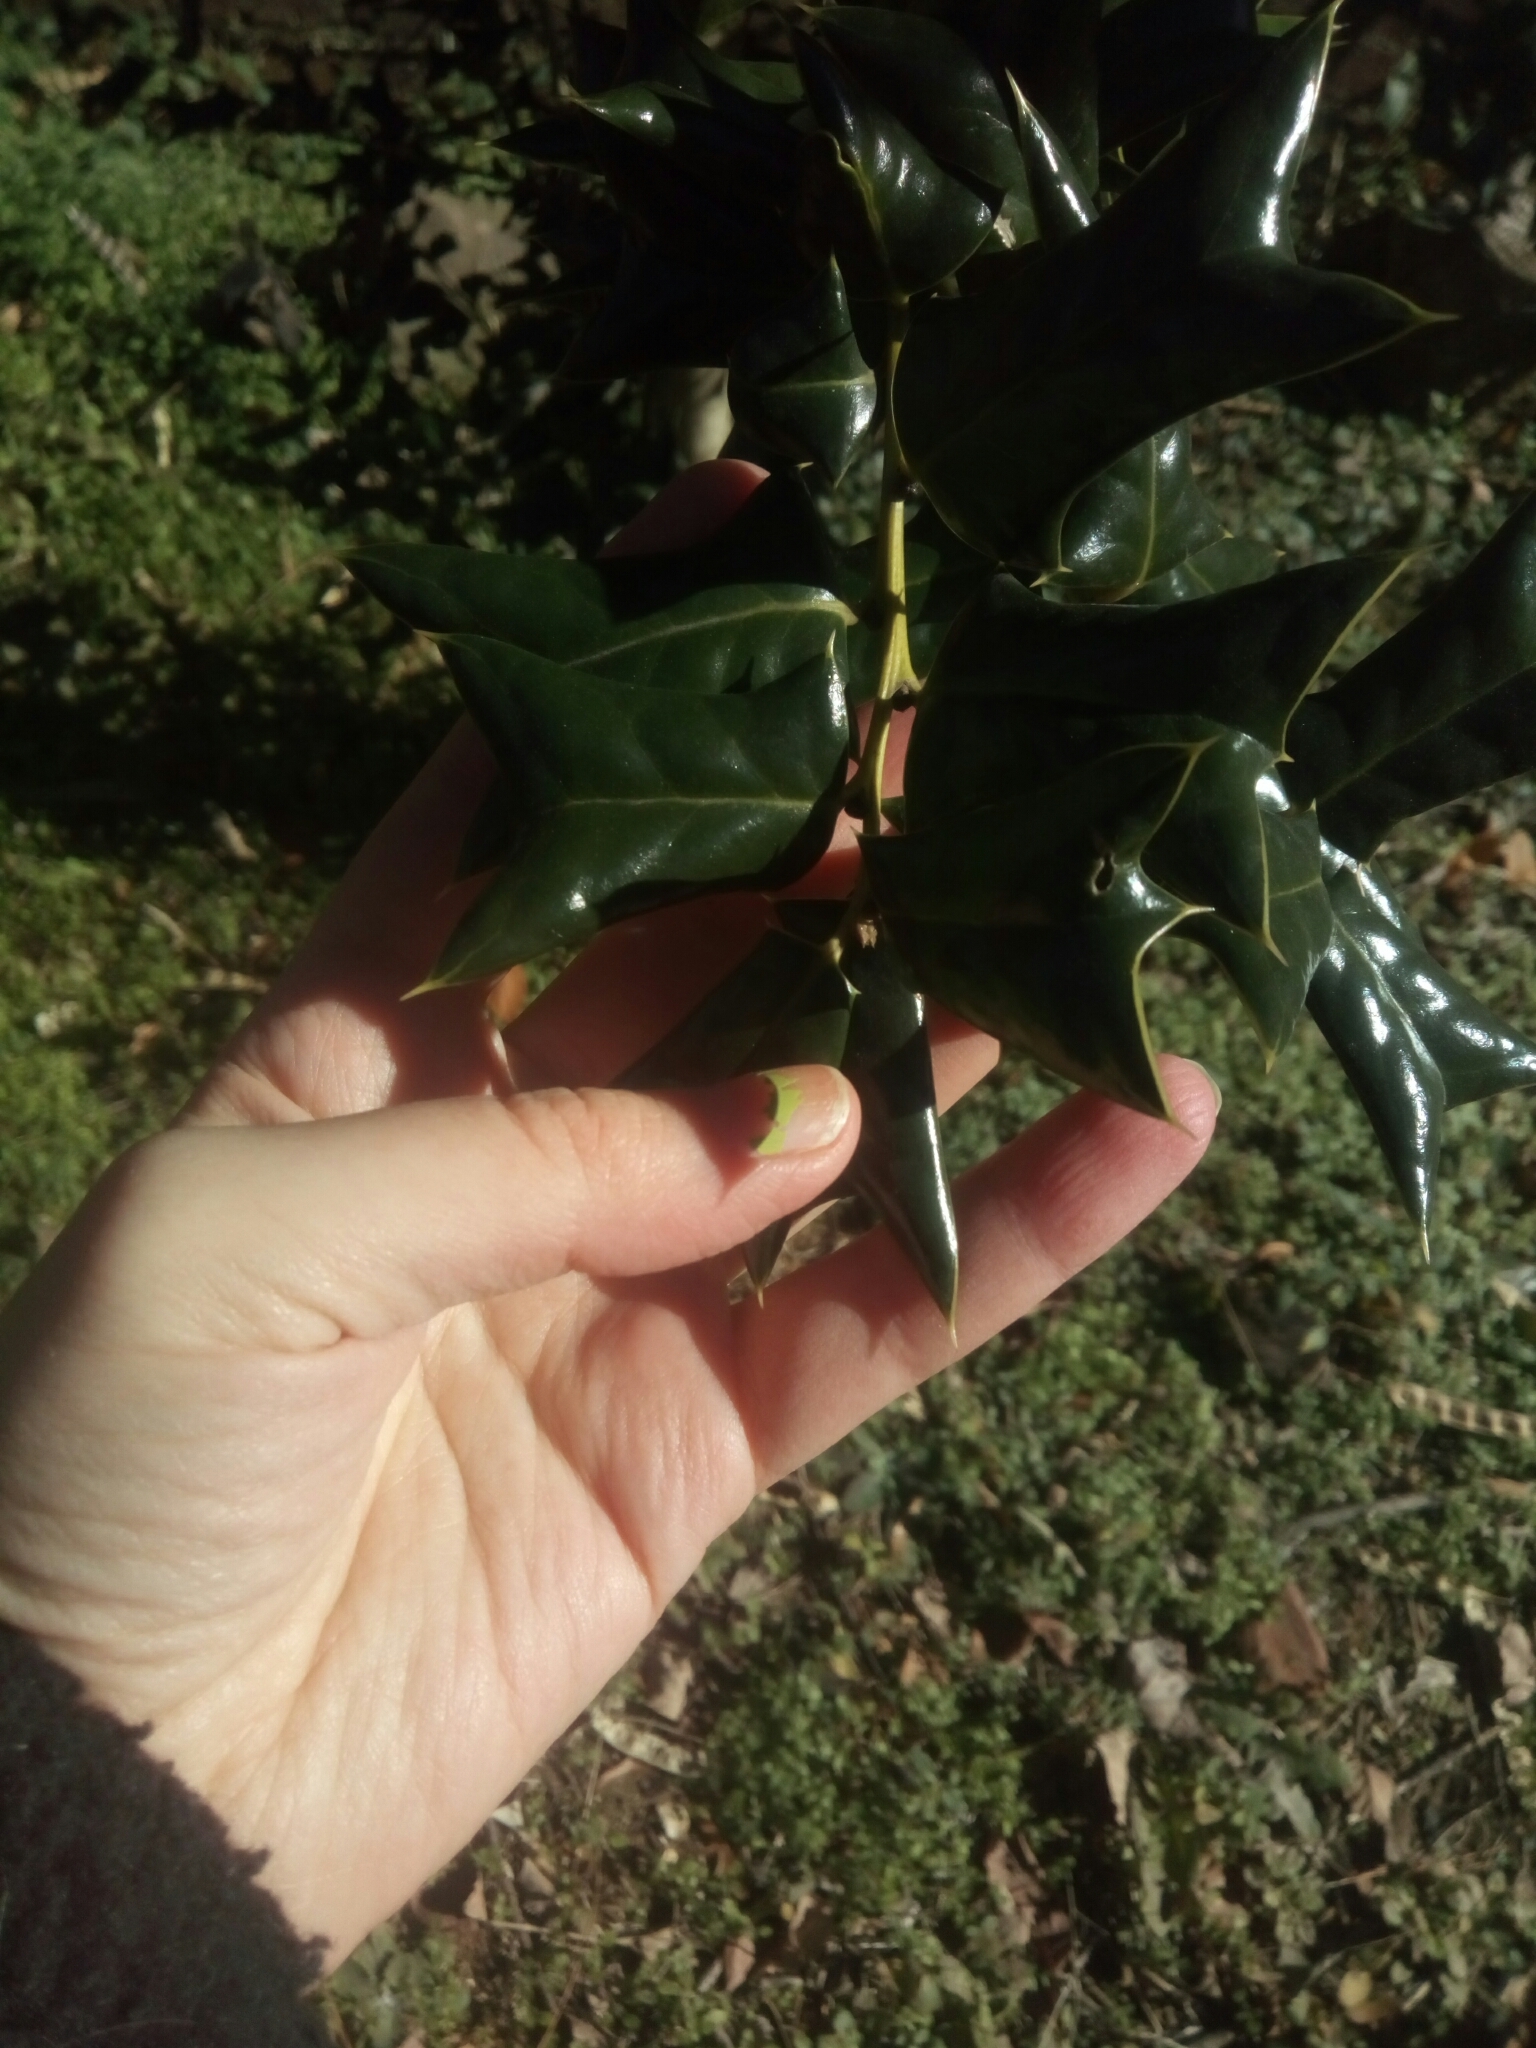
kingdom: Plantae
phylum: Tracheophyta
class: Magnoliopsida
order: Aquifoliales
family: Aquifoliaceae
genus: Ilex
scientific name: Ilex cornuta
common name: Chinese holly
